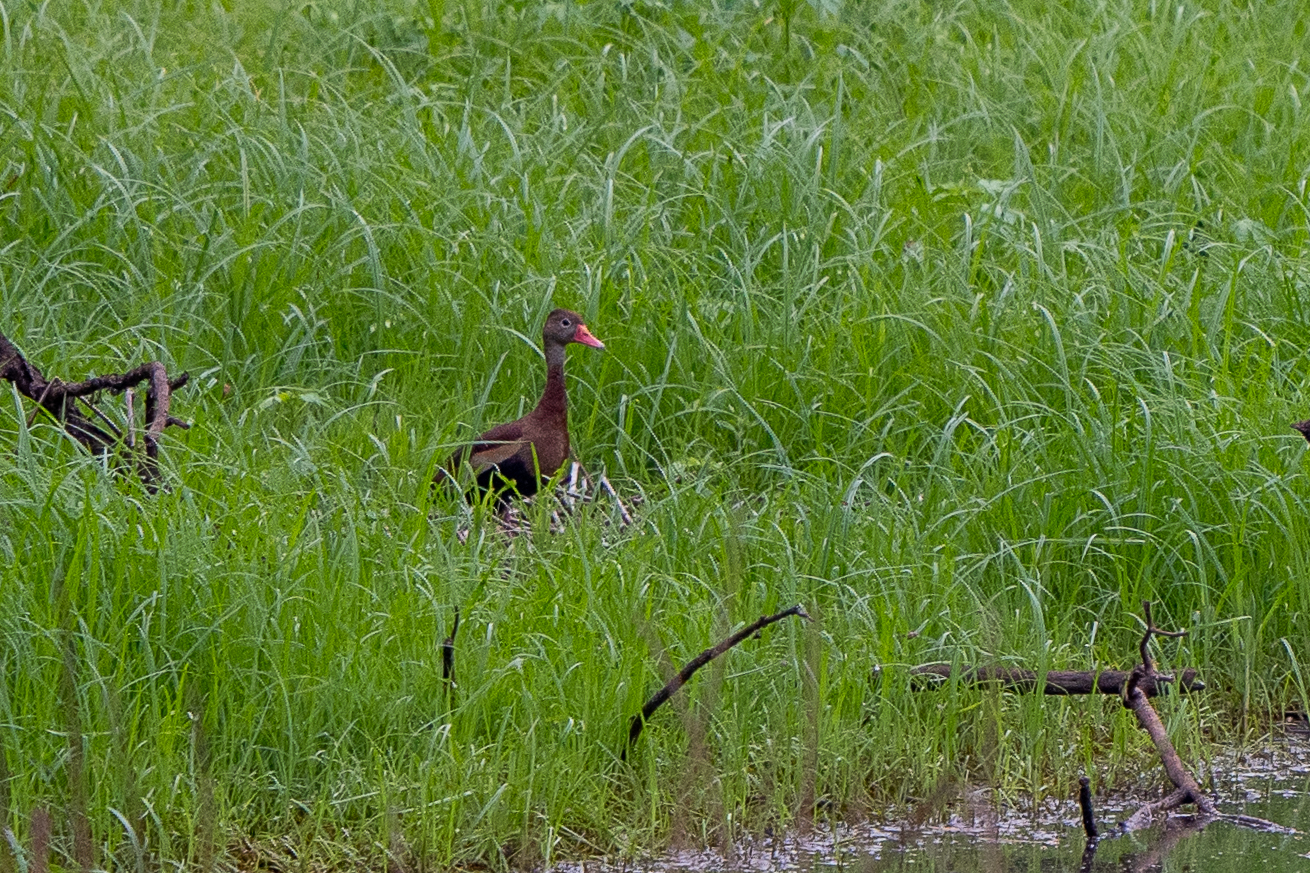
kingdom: Animalia
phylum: Chordata
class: Aves
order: Anseriformes
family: Anatidae
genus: Dendrocygna
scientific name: Dendrocygna autumnalis
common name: Black-bellied whistling duck
